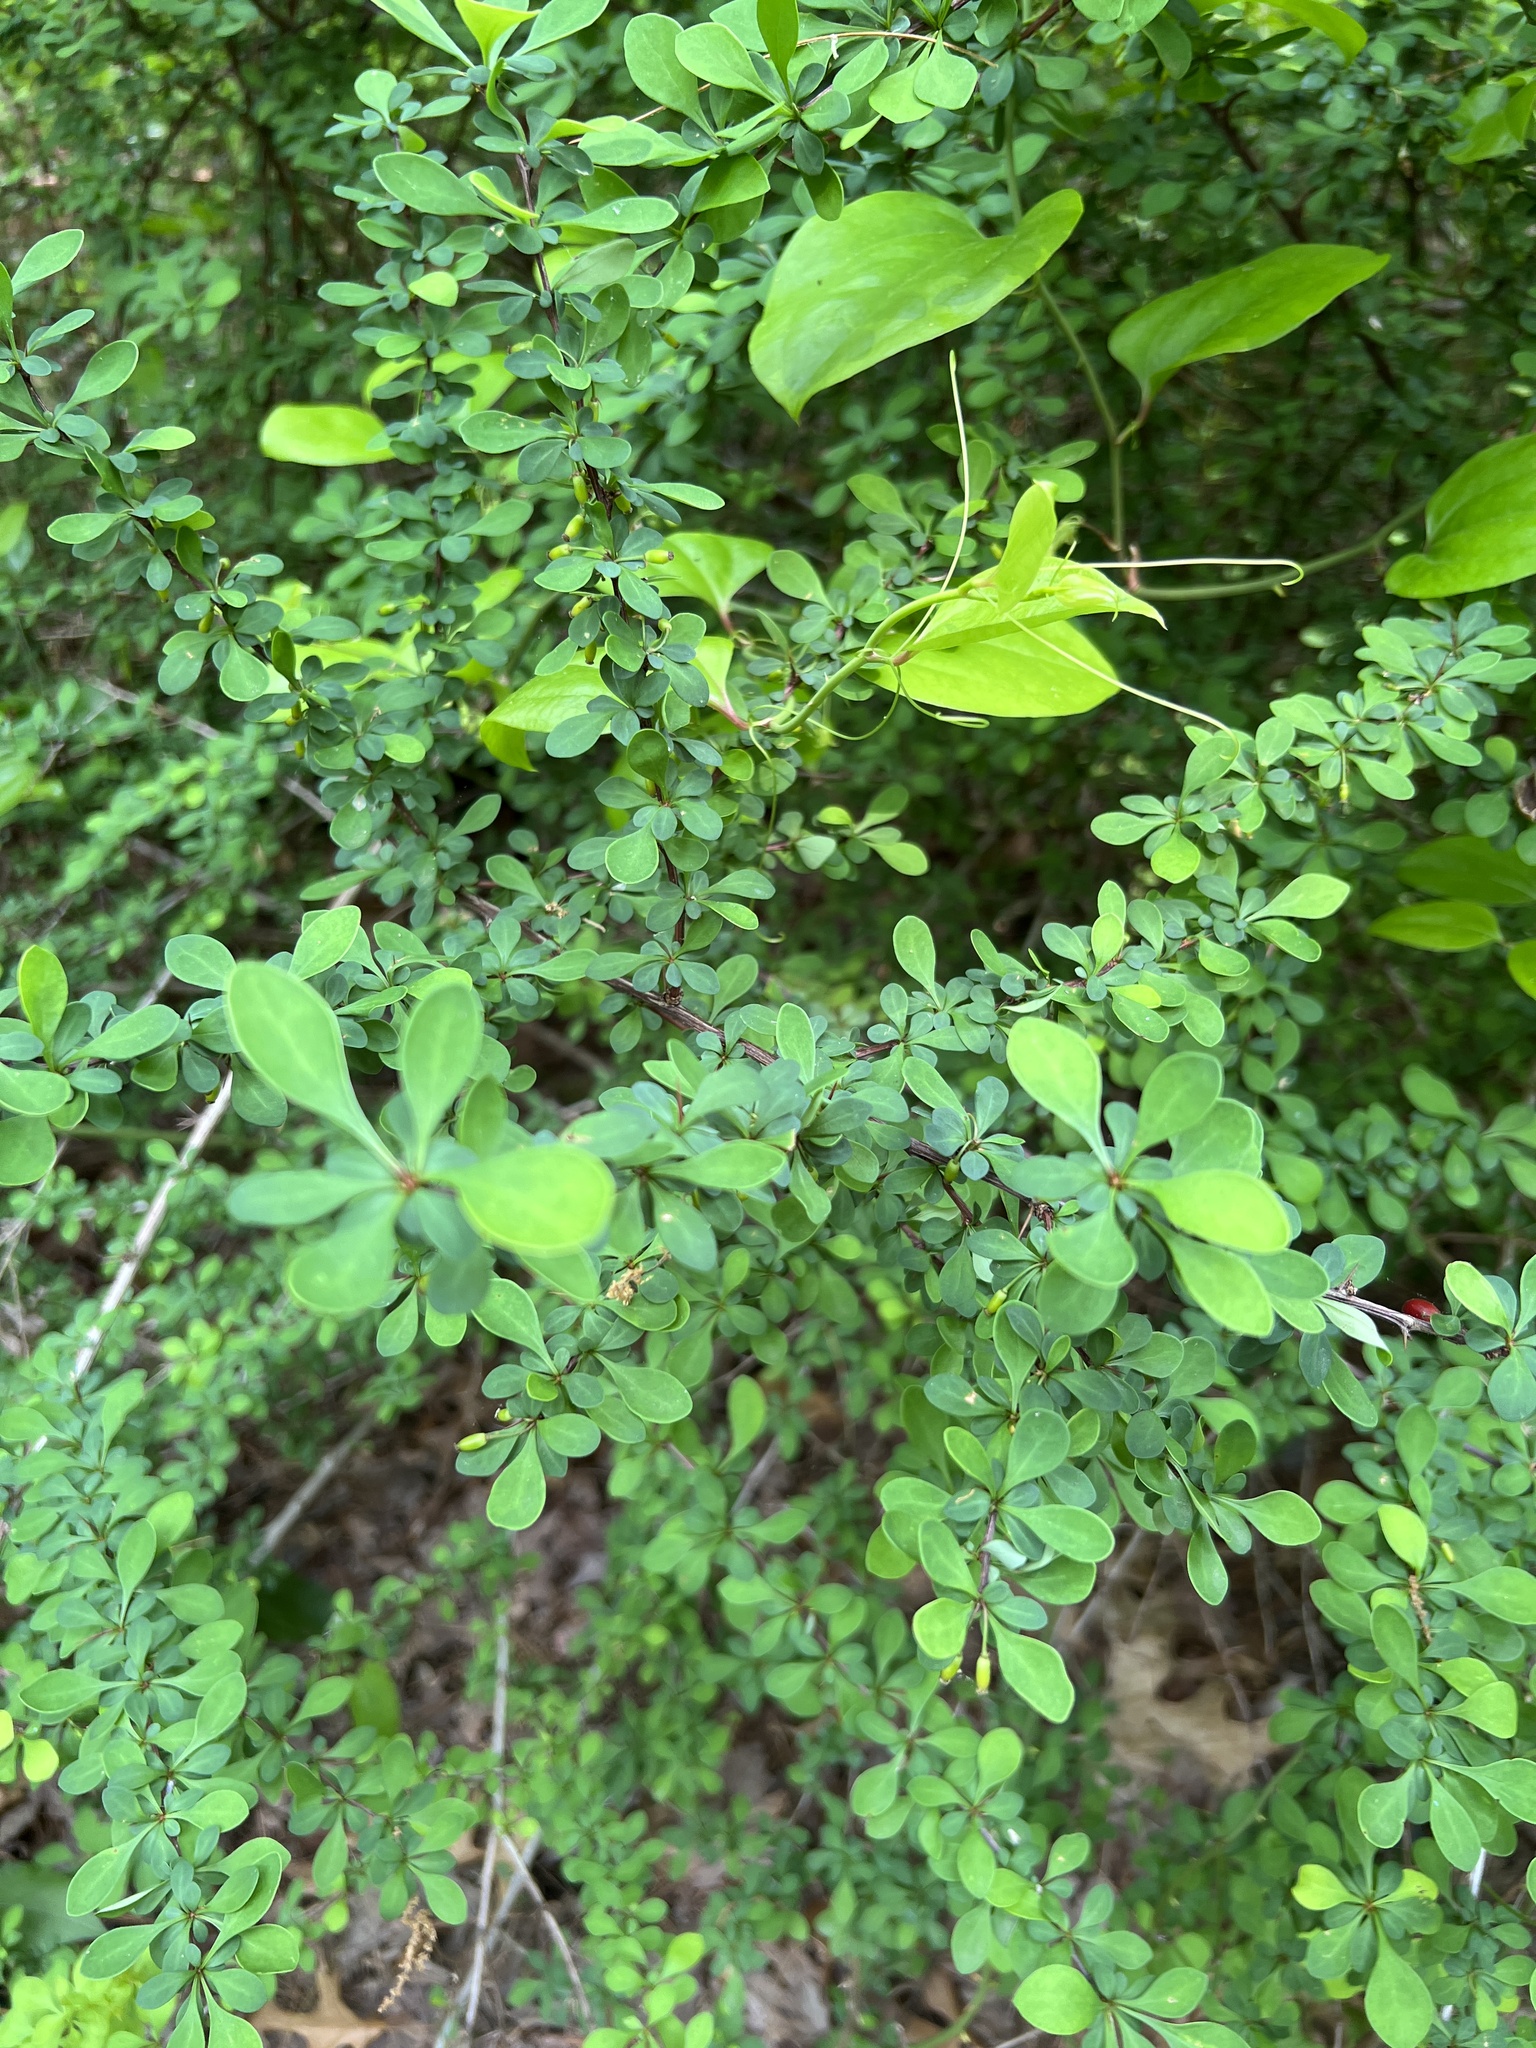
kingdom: Plantae
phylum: Tracheophyta
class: Magnoliopsida
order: Ranunculales
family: Berberidaceae
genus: Berberis
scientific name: Berberis thunbergii
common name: Japanese barberry
